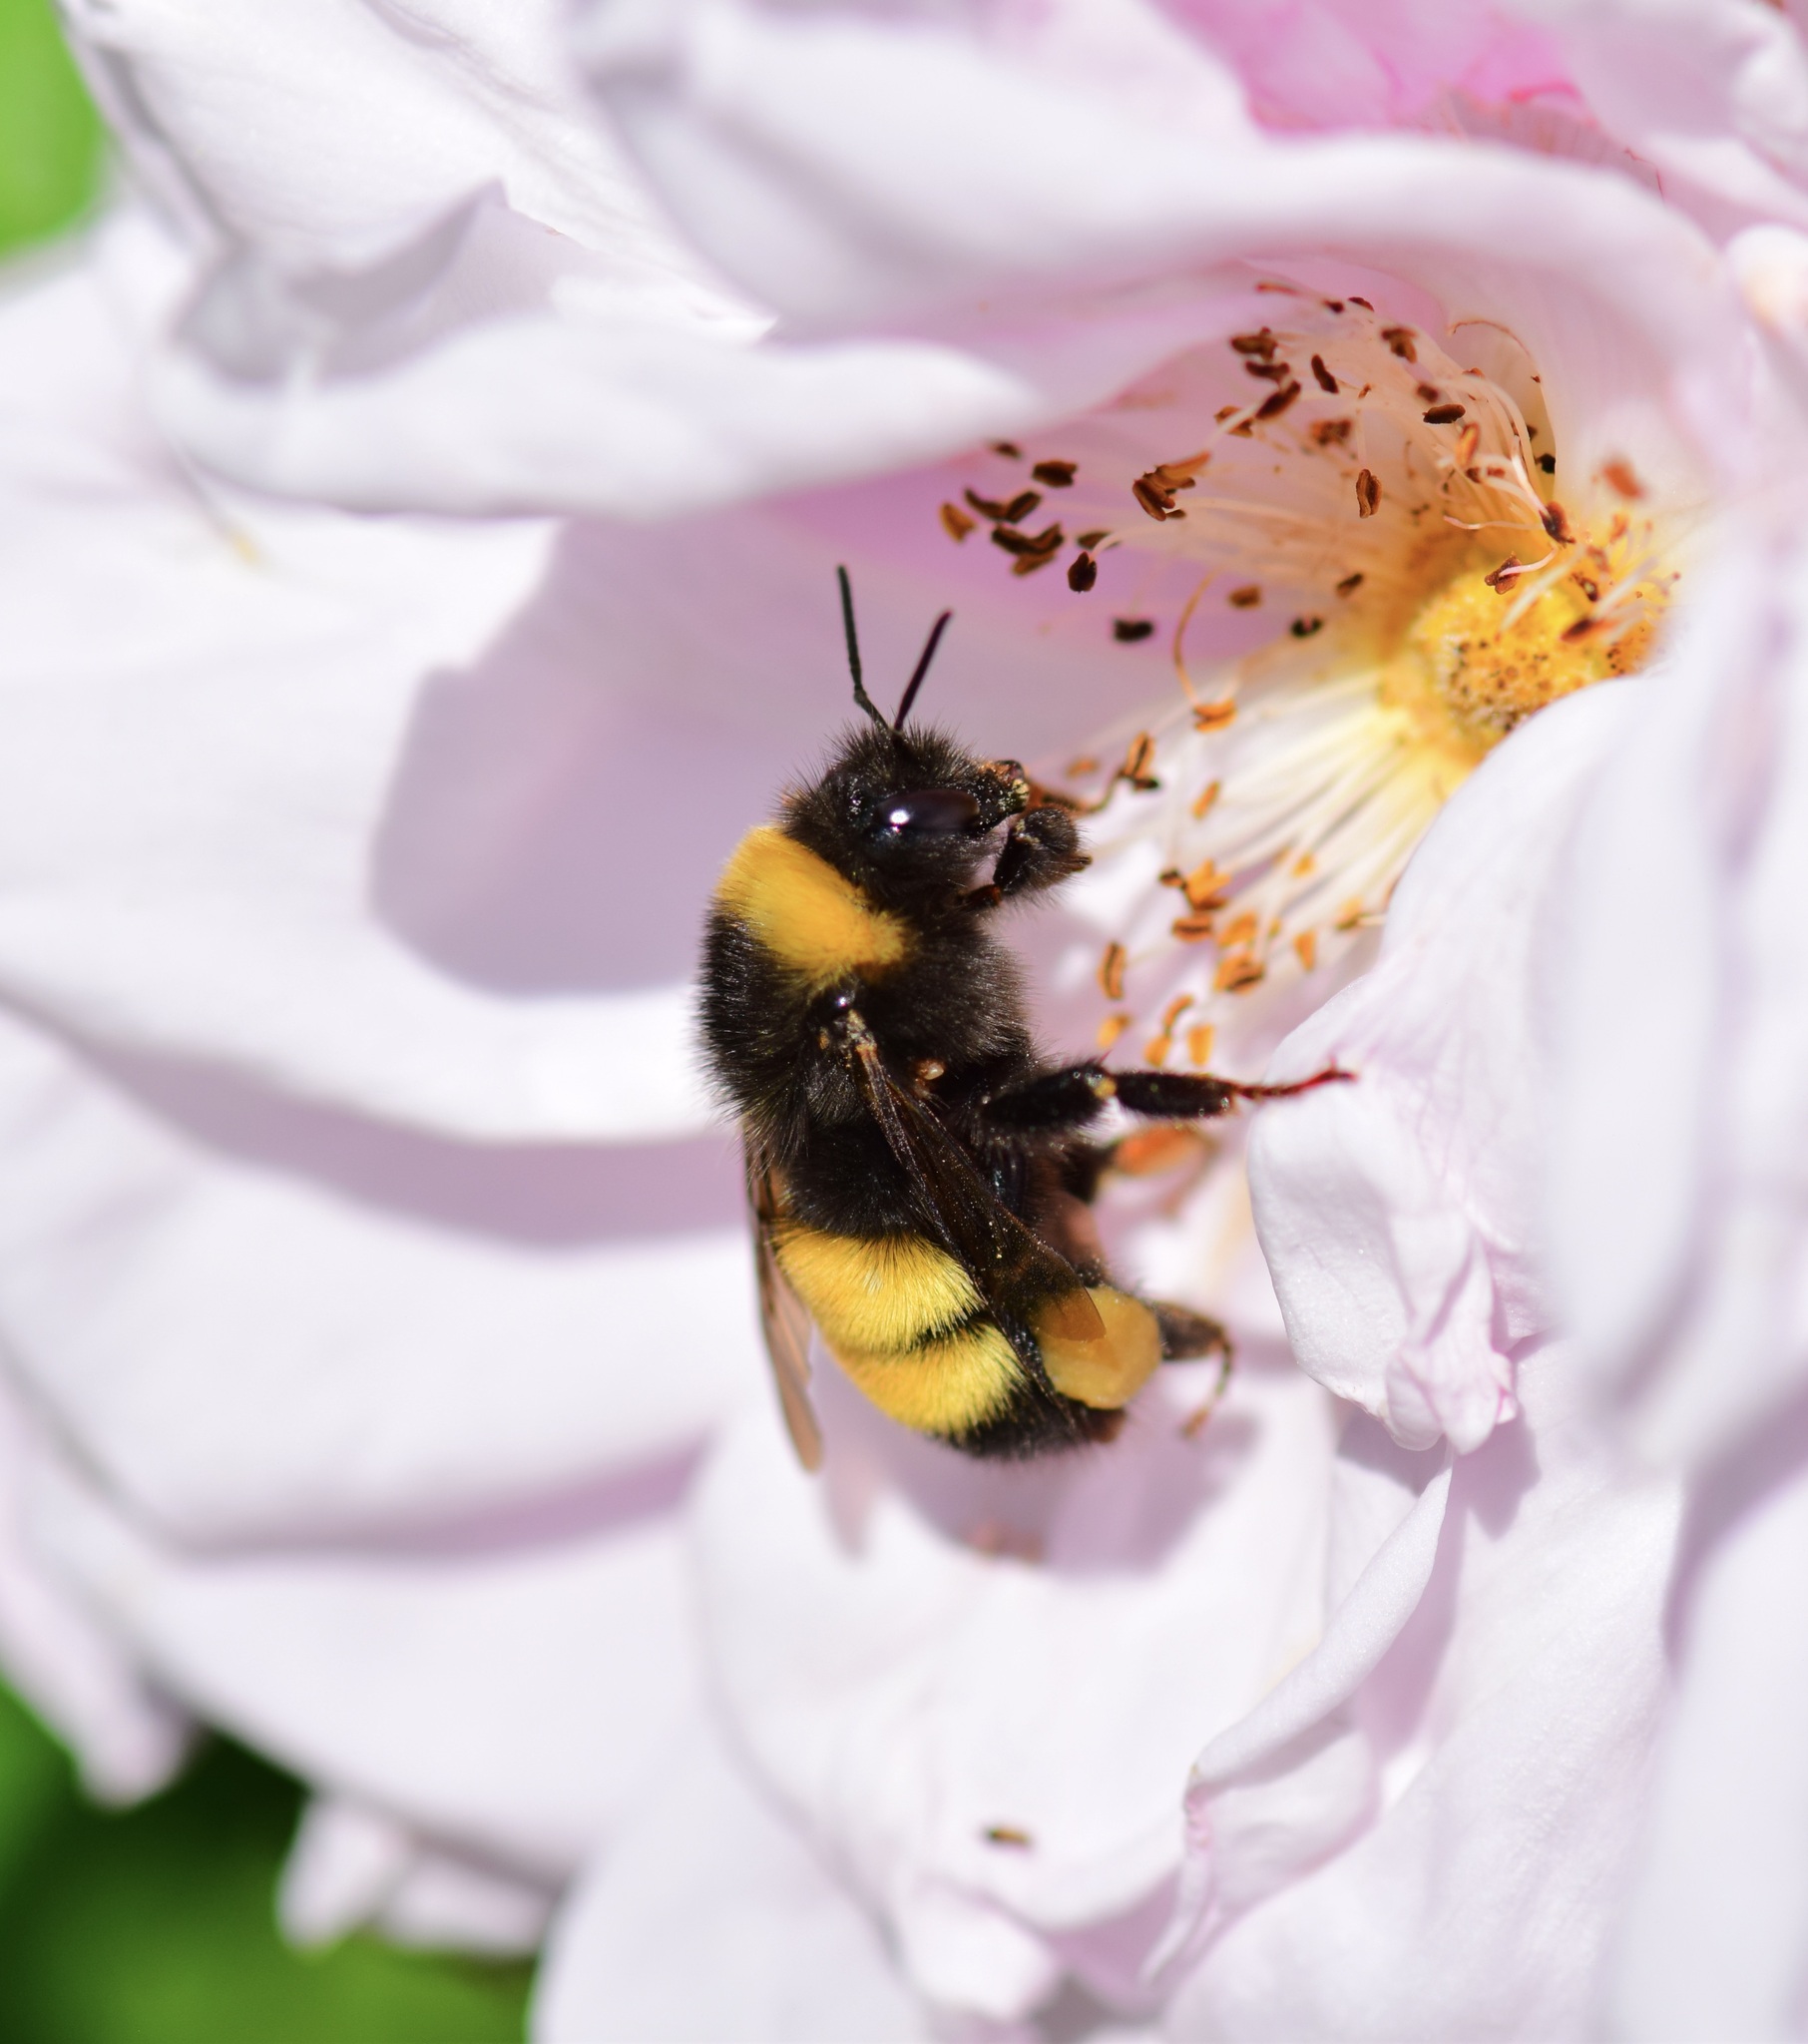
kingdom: Animalia
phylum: Arthropoda
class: Insecta
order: Hymenoptera
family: Apidae
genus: Bombus
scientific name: Bombus terricola
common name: Yellow-banded bumble bee
